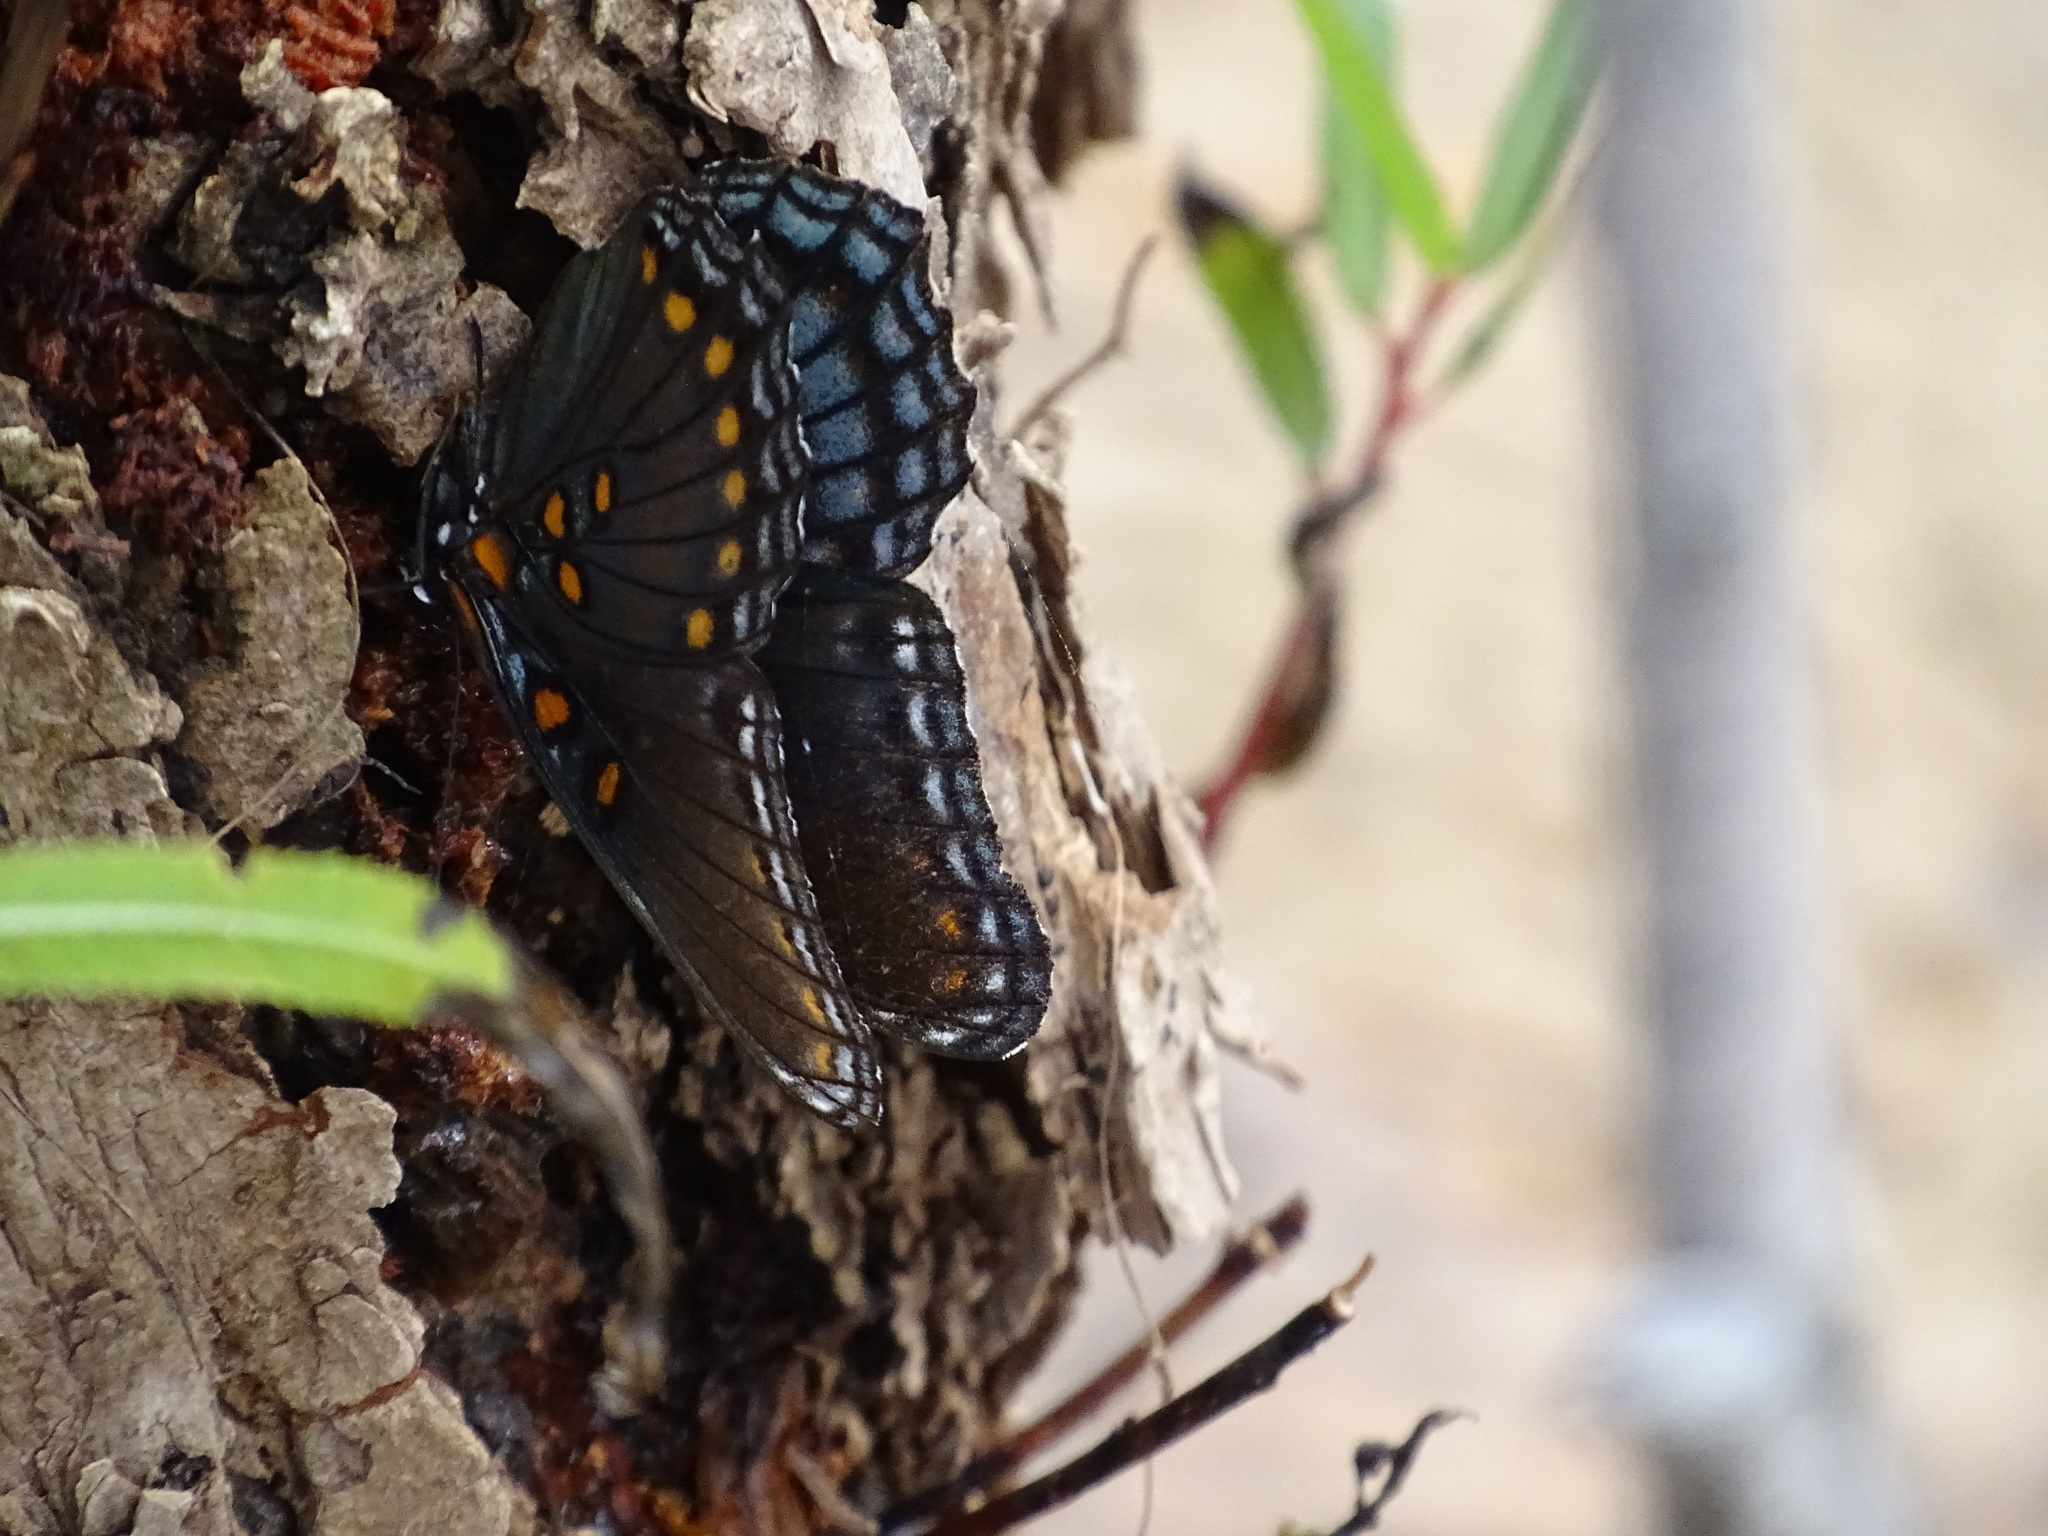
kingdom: Animalia
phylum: Arthropoda
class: Insecta
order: Lepidoptera
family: Nymphalidae
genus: Limenitis
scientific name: Limenitis arthemis
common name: Red-spotted admiral
